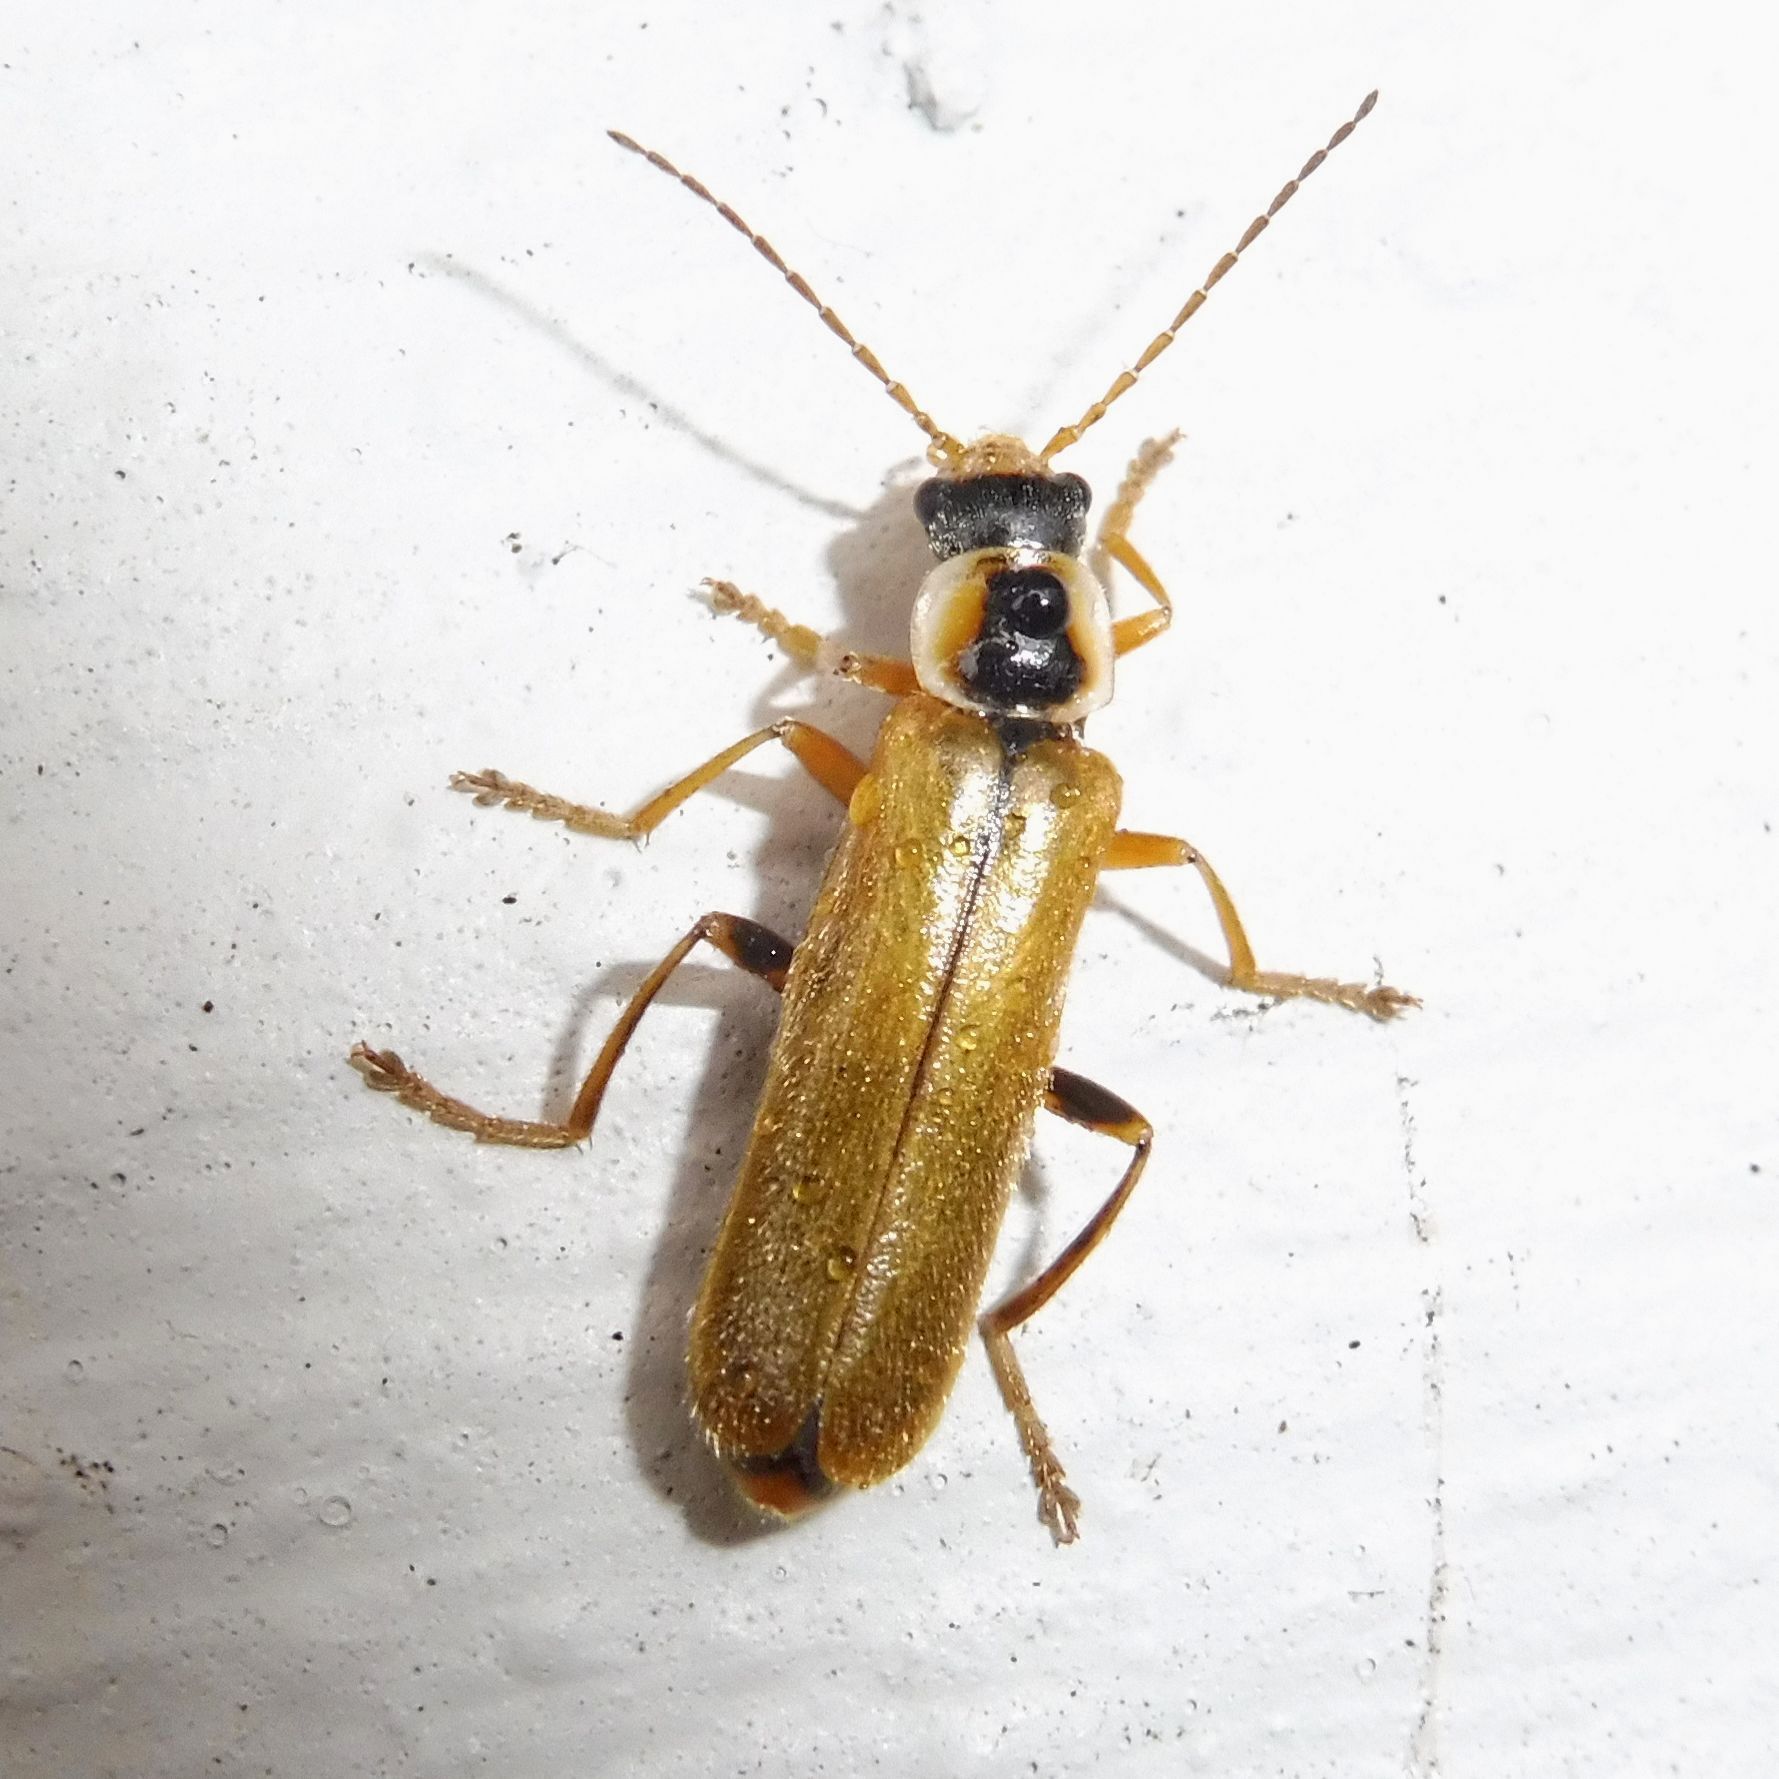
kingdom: Animalia
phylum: Arthropoda
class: Insecta
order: Coleoptera
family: Cantharidae
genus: Cantharis
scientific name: Cantharis decipiens
